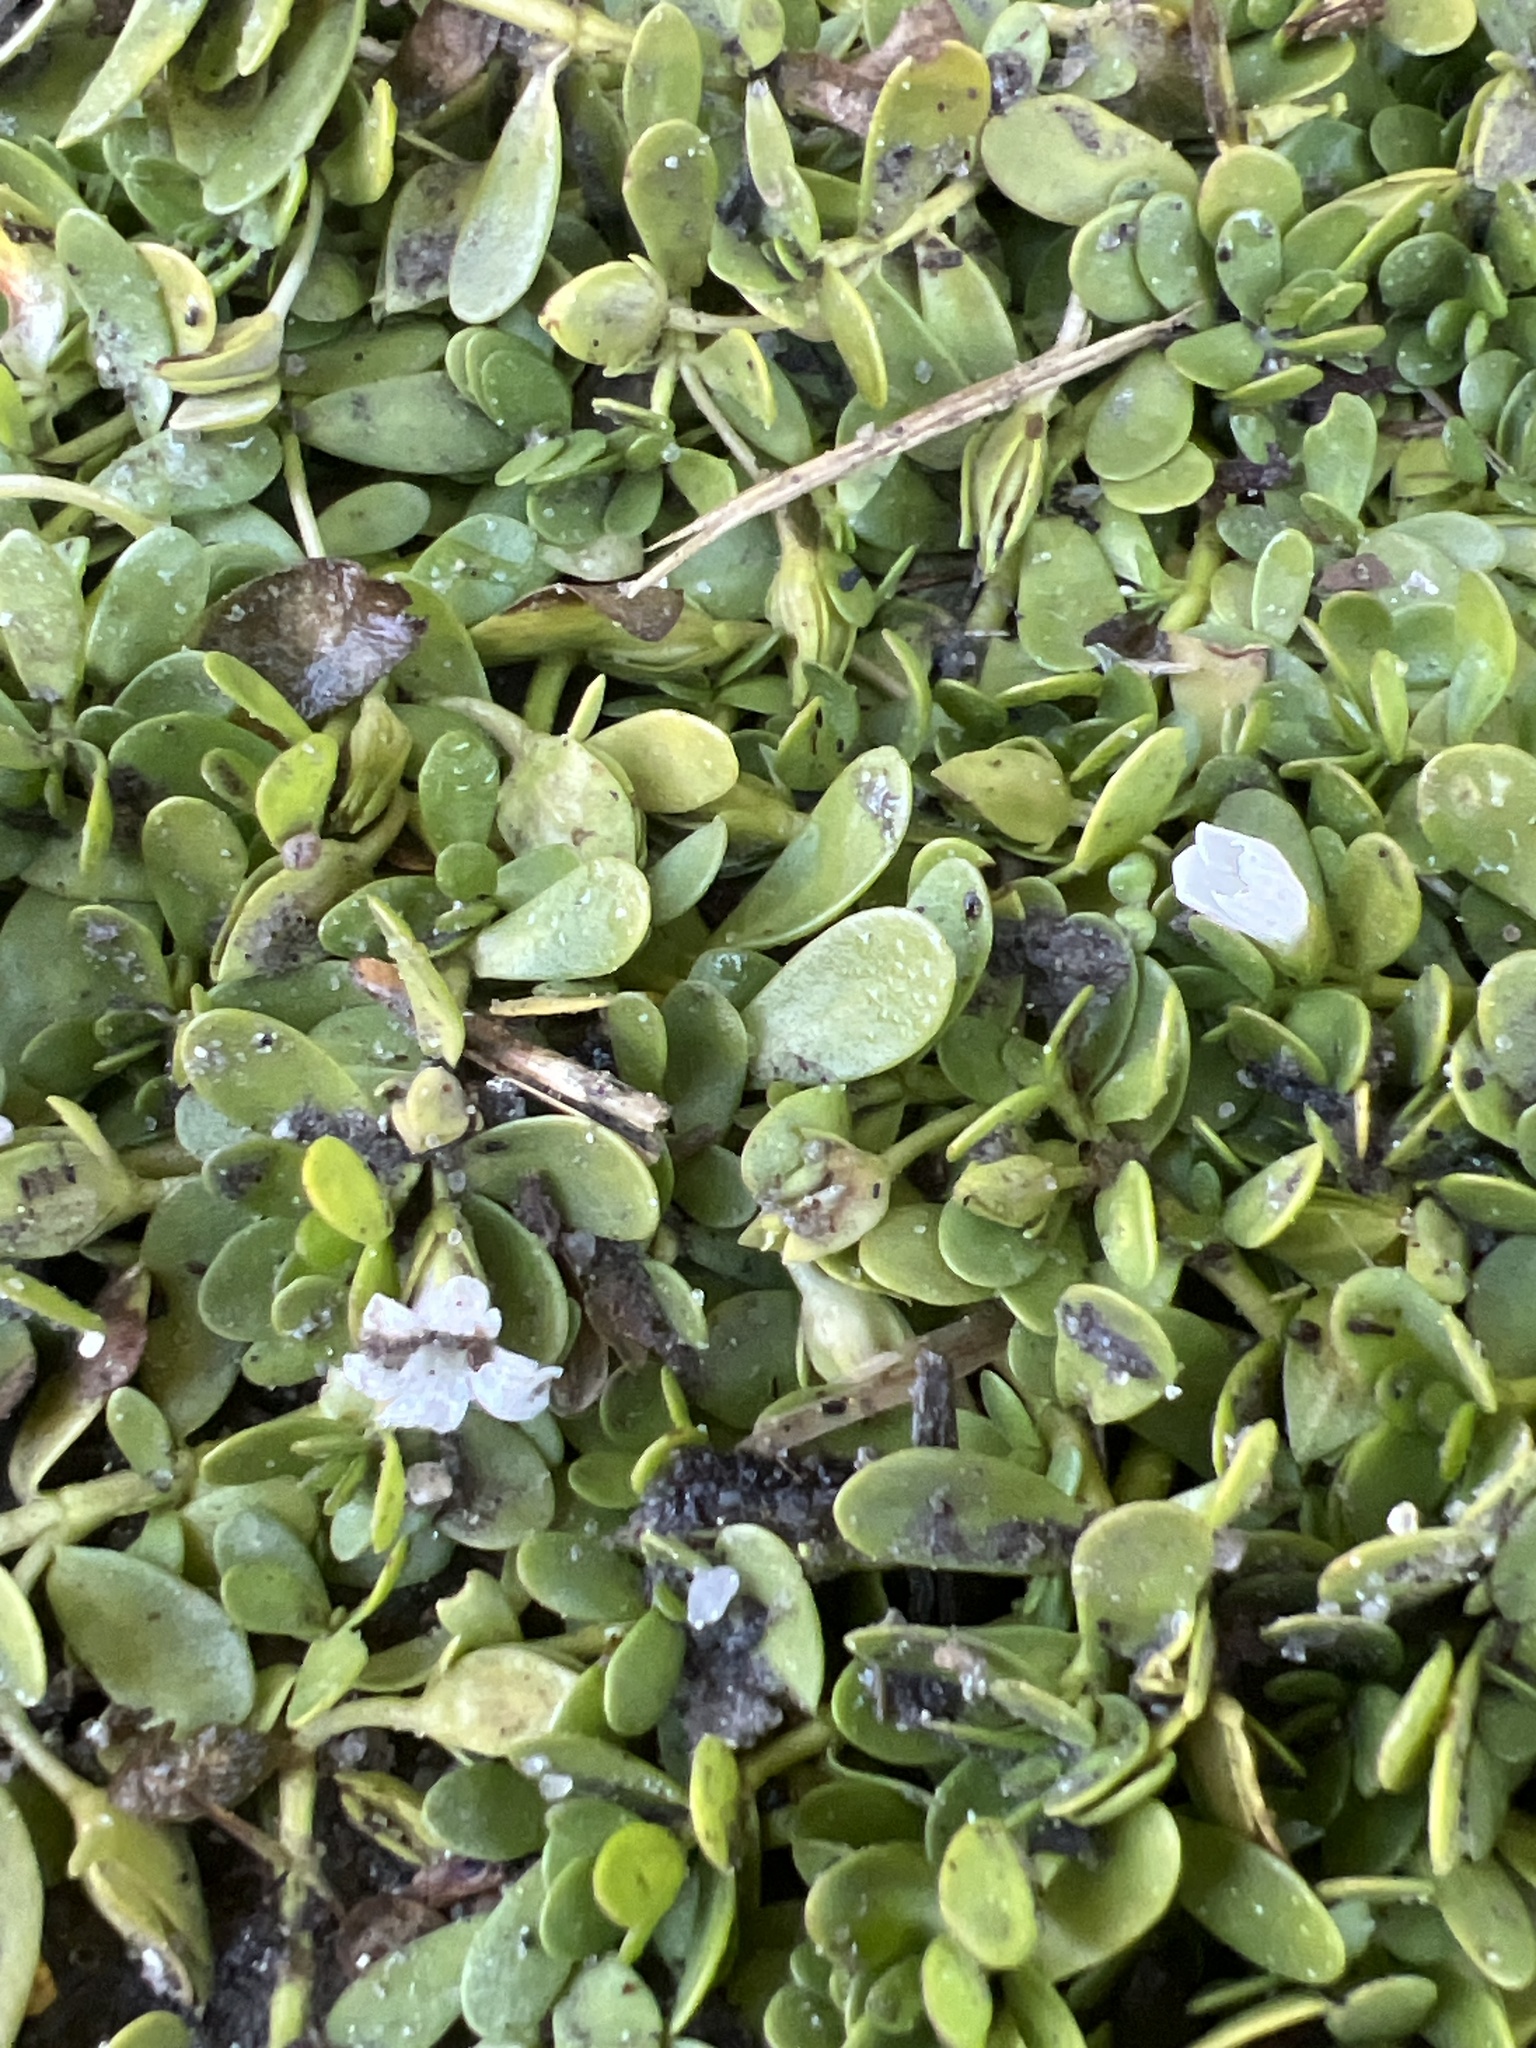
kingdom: Plantae
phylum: Tracheophyta
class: Magnoliopsida
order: Lamiales
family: Plantaginaceae
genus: Bacopa
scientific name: Bacopa monnieri
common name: Indian-pennywort
